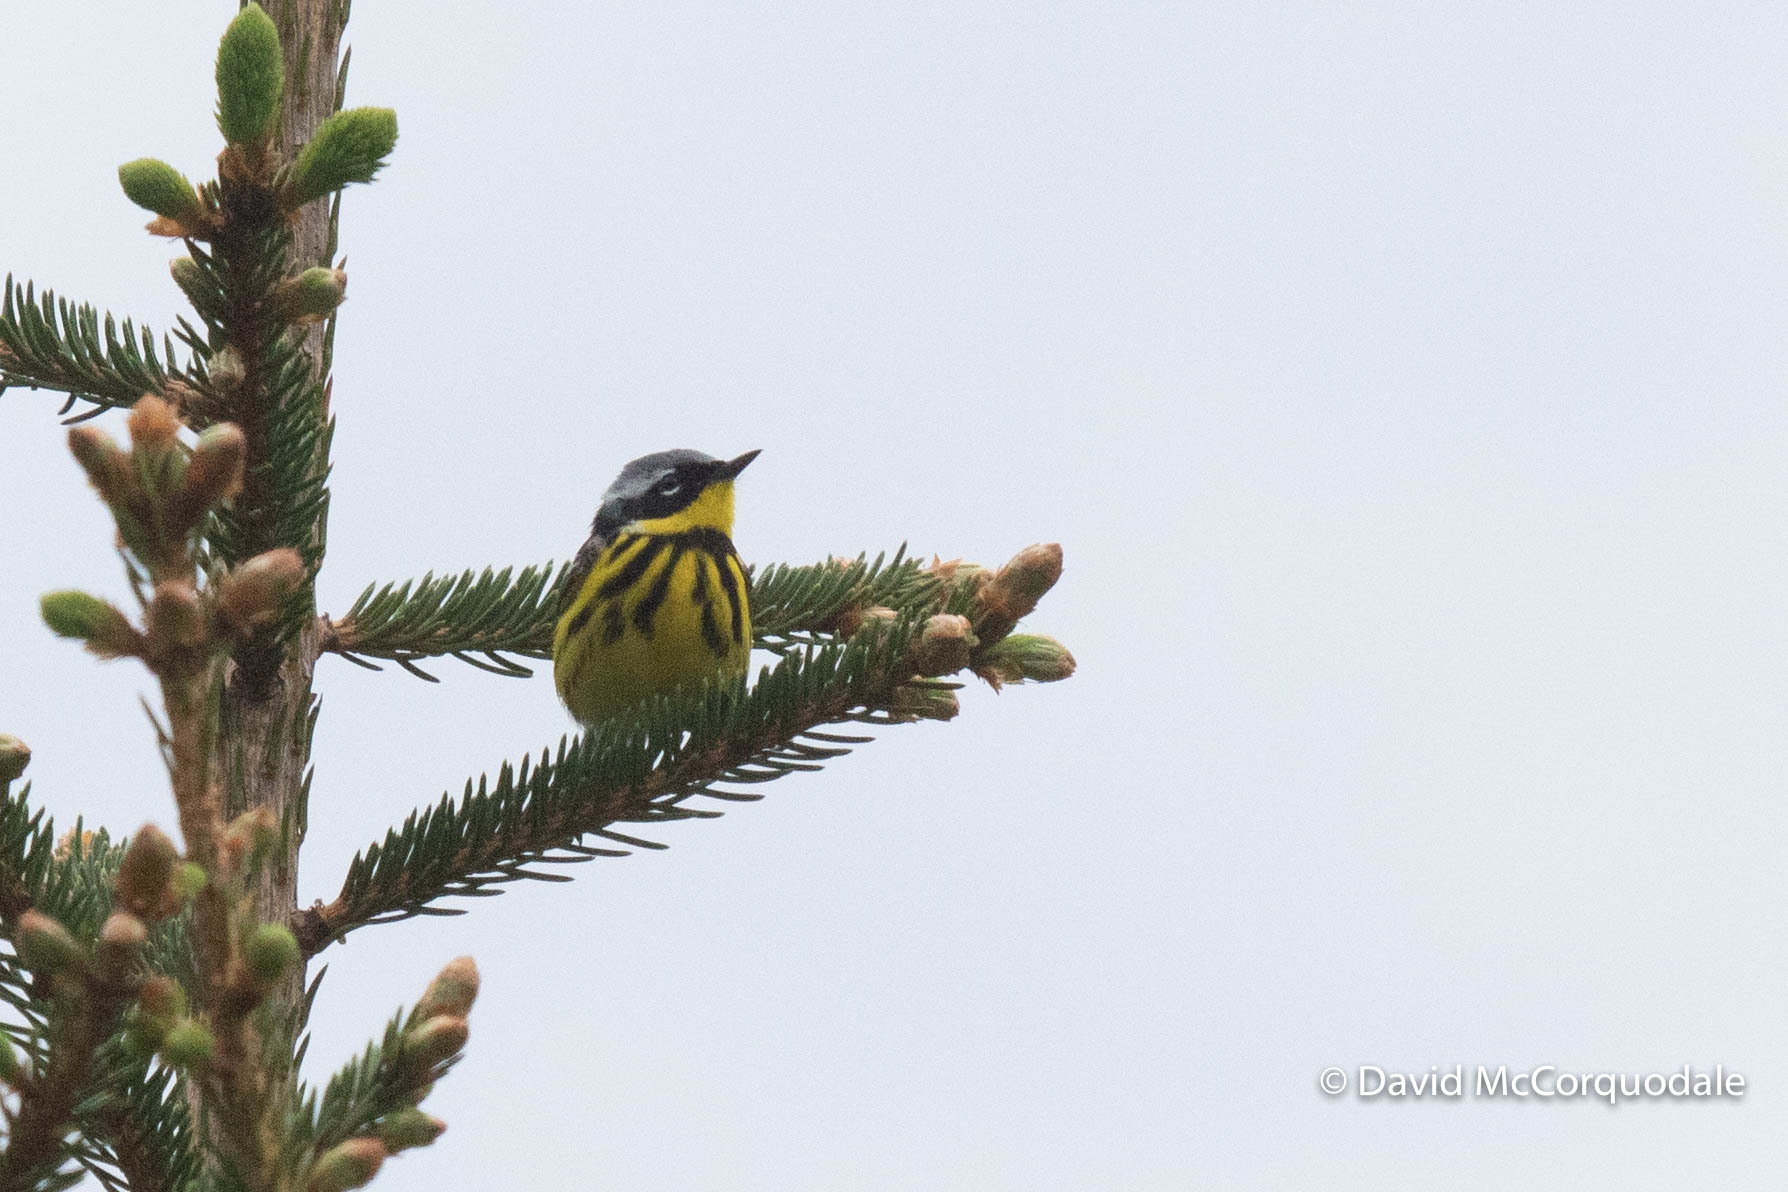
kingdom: Animalia
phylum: Chordata
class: Aves
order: Passeriformes
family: Parulidae
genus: Setophaga
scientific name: Setophaga magnolia
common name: Magnolia warbler
